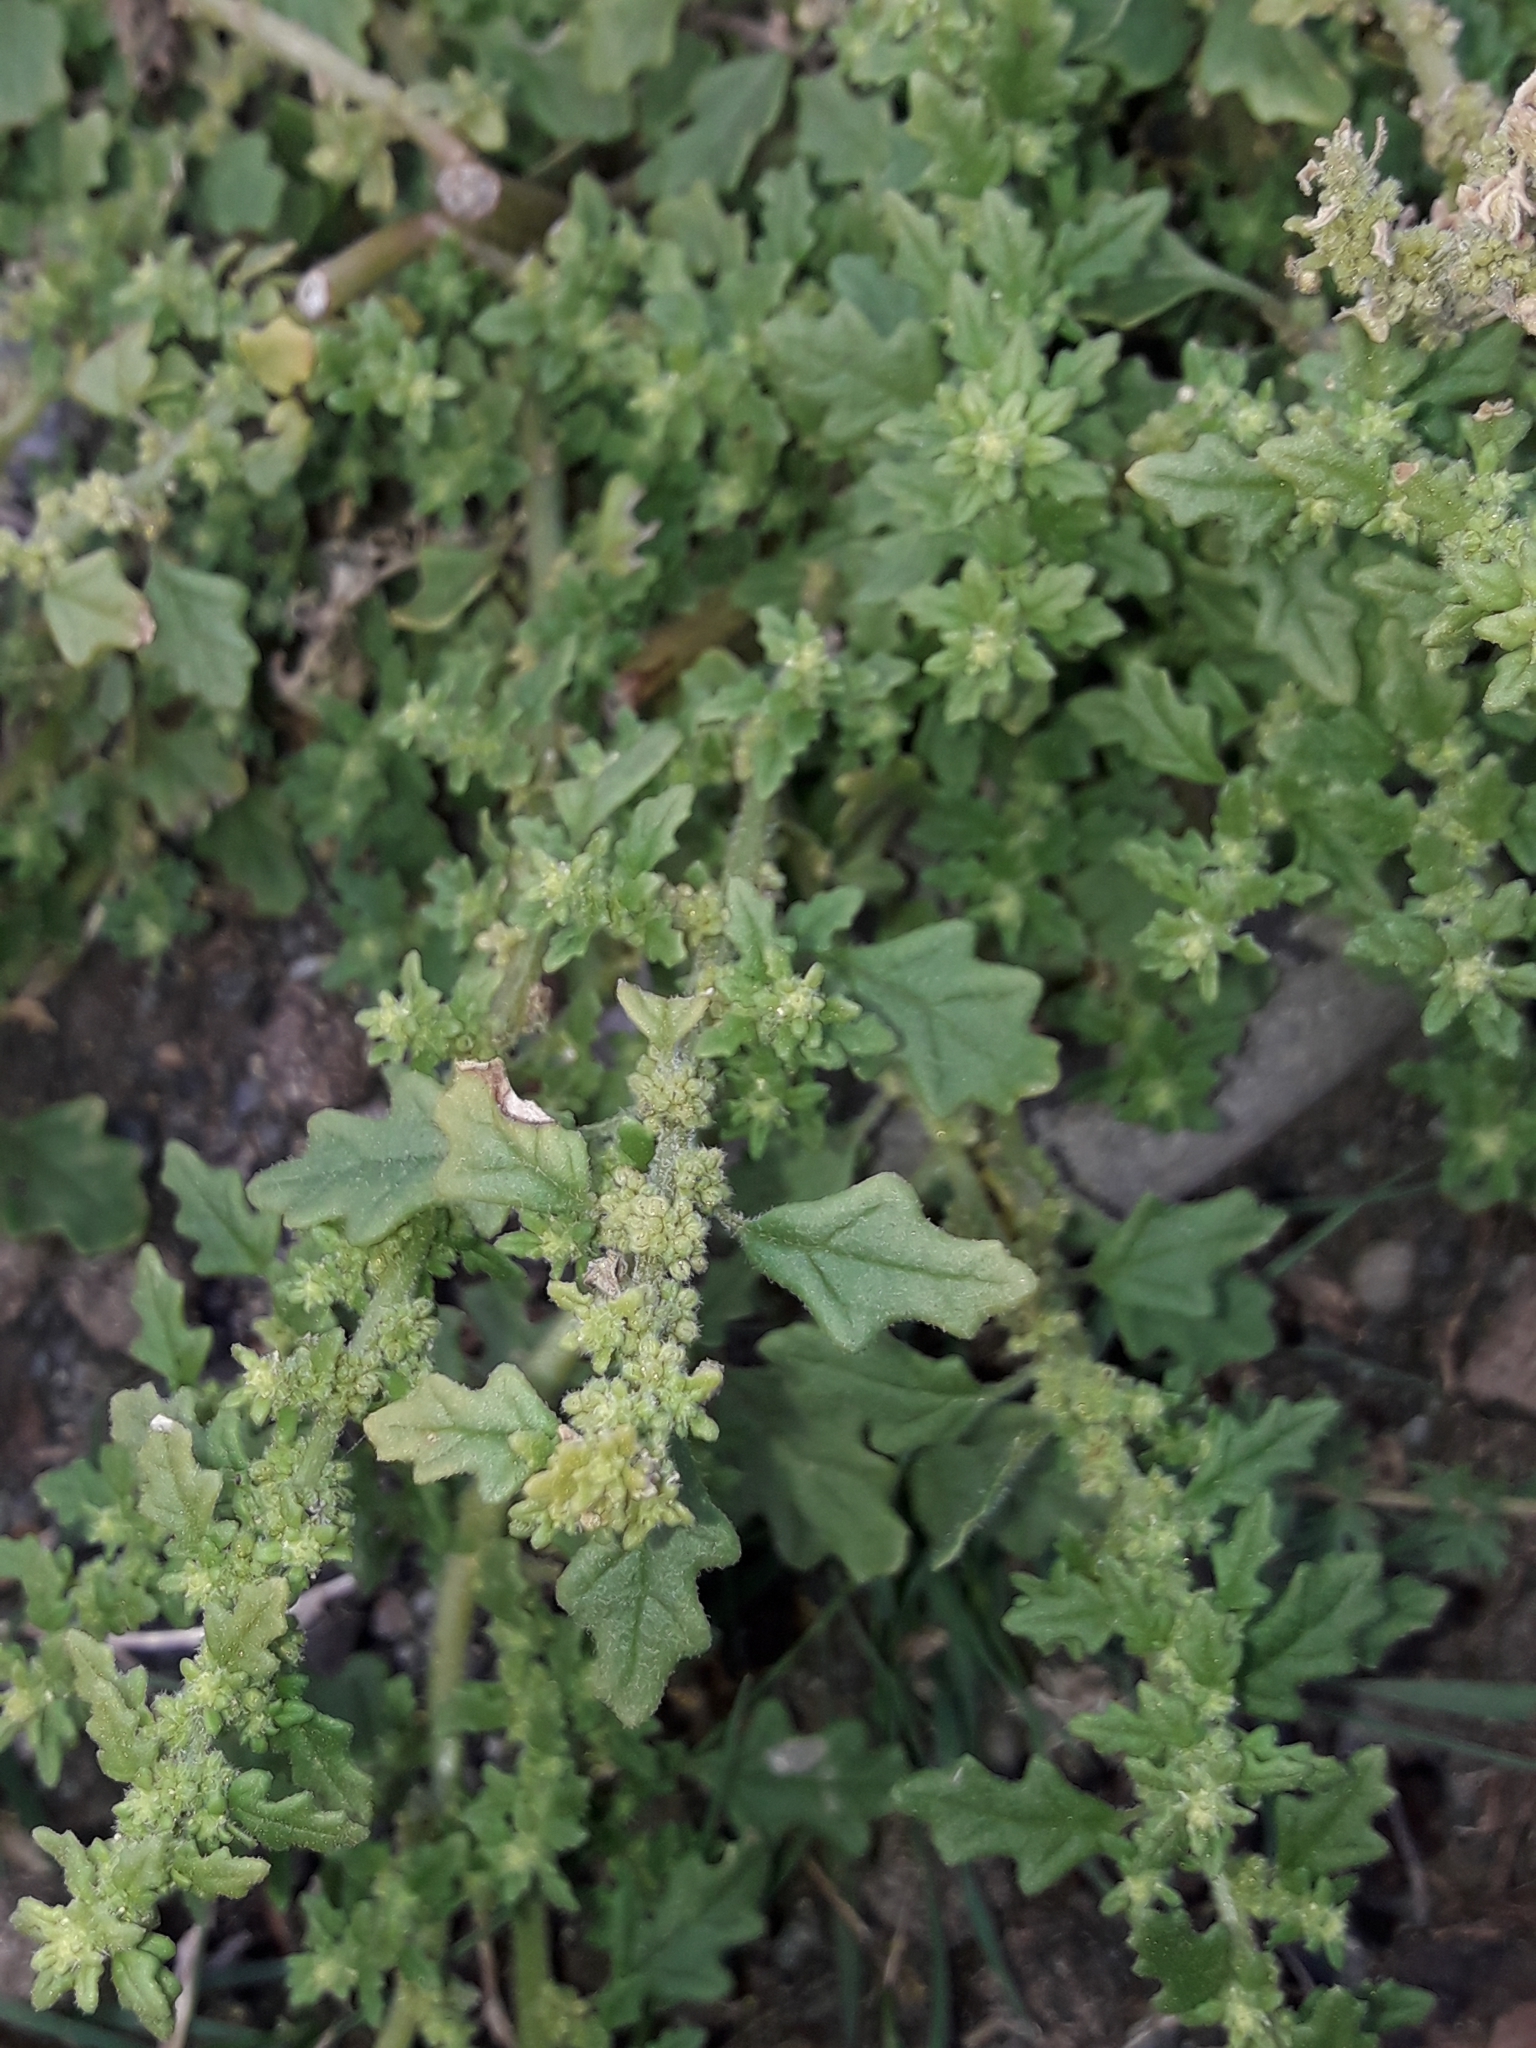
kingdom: Plantae
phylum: Tracheophyta
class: Magnoliopsida
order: Caryophyllales
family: Amaranthaceae
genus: Dysphania
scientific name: Dysphania pumilio
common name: Clammy goosefoot
